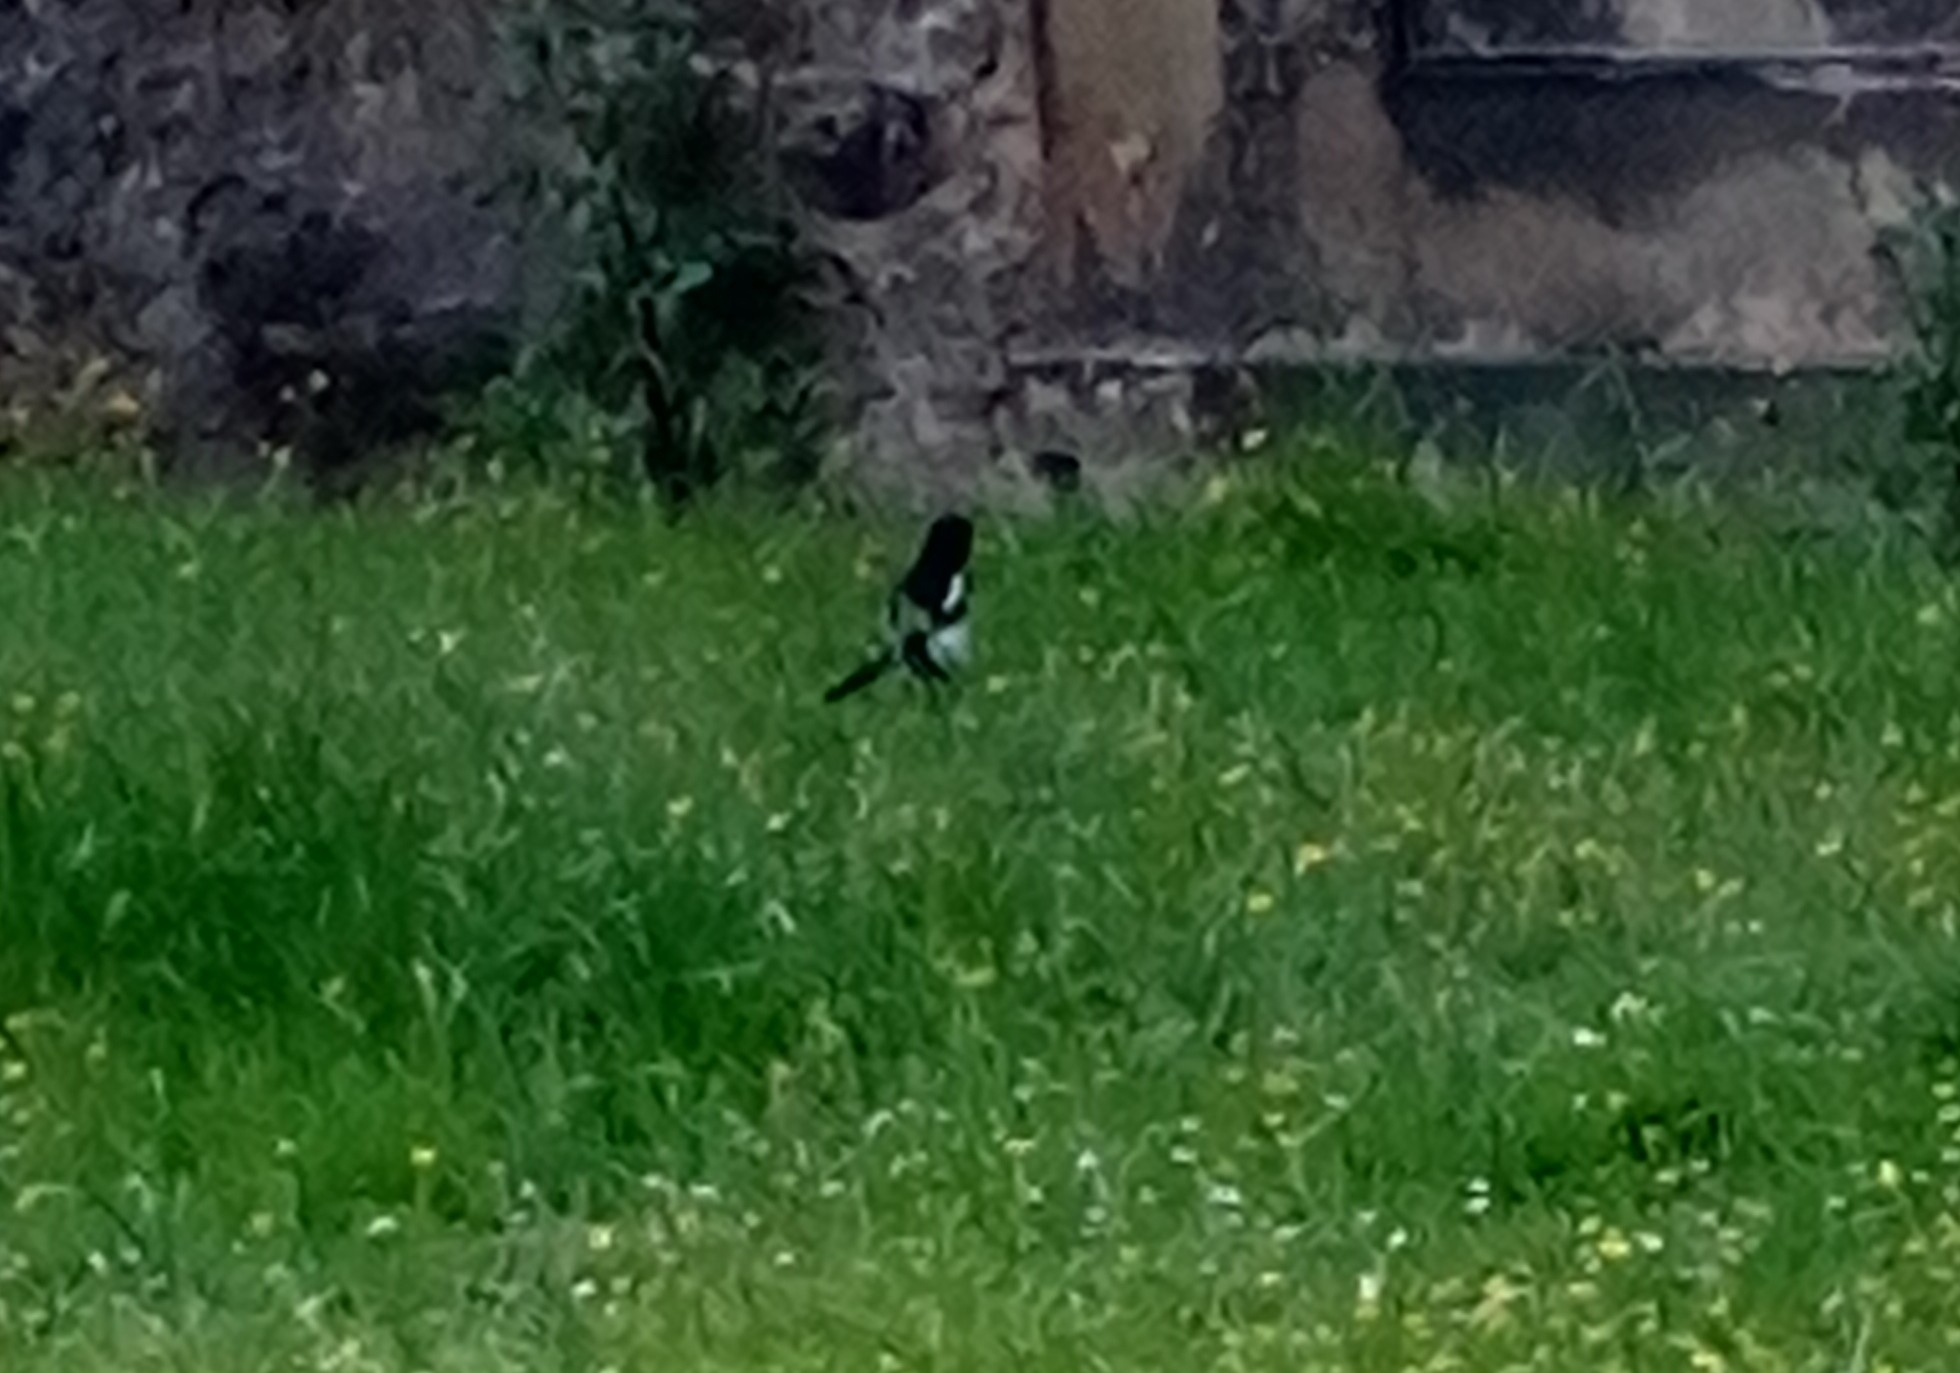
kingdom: Animalia
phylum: Chordata
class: Aves
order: Passeriformes
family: Corvidae
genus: Pica
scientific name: Pica pica
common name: Eurasian magpie
